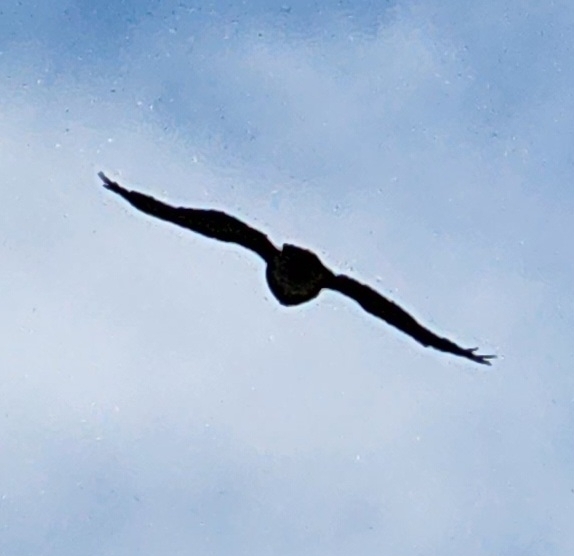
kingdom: Animalia
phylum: Chordata
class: Aves
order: Accipitriformes
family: Accipitridae
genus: Buteo
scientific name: Buteo jamaicensis
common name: Red-tailed hawk
